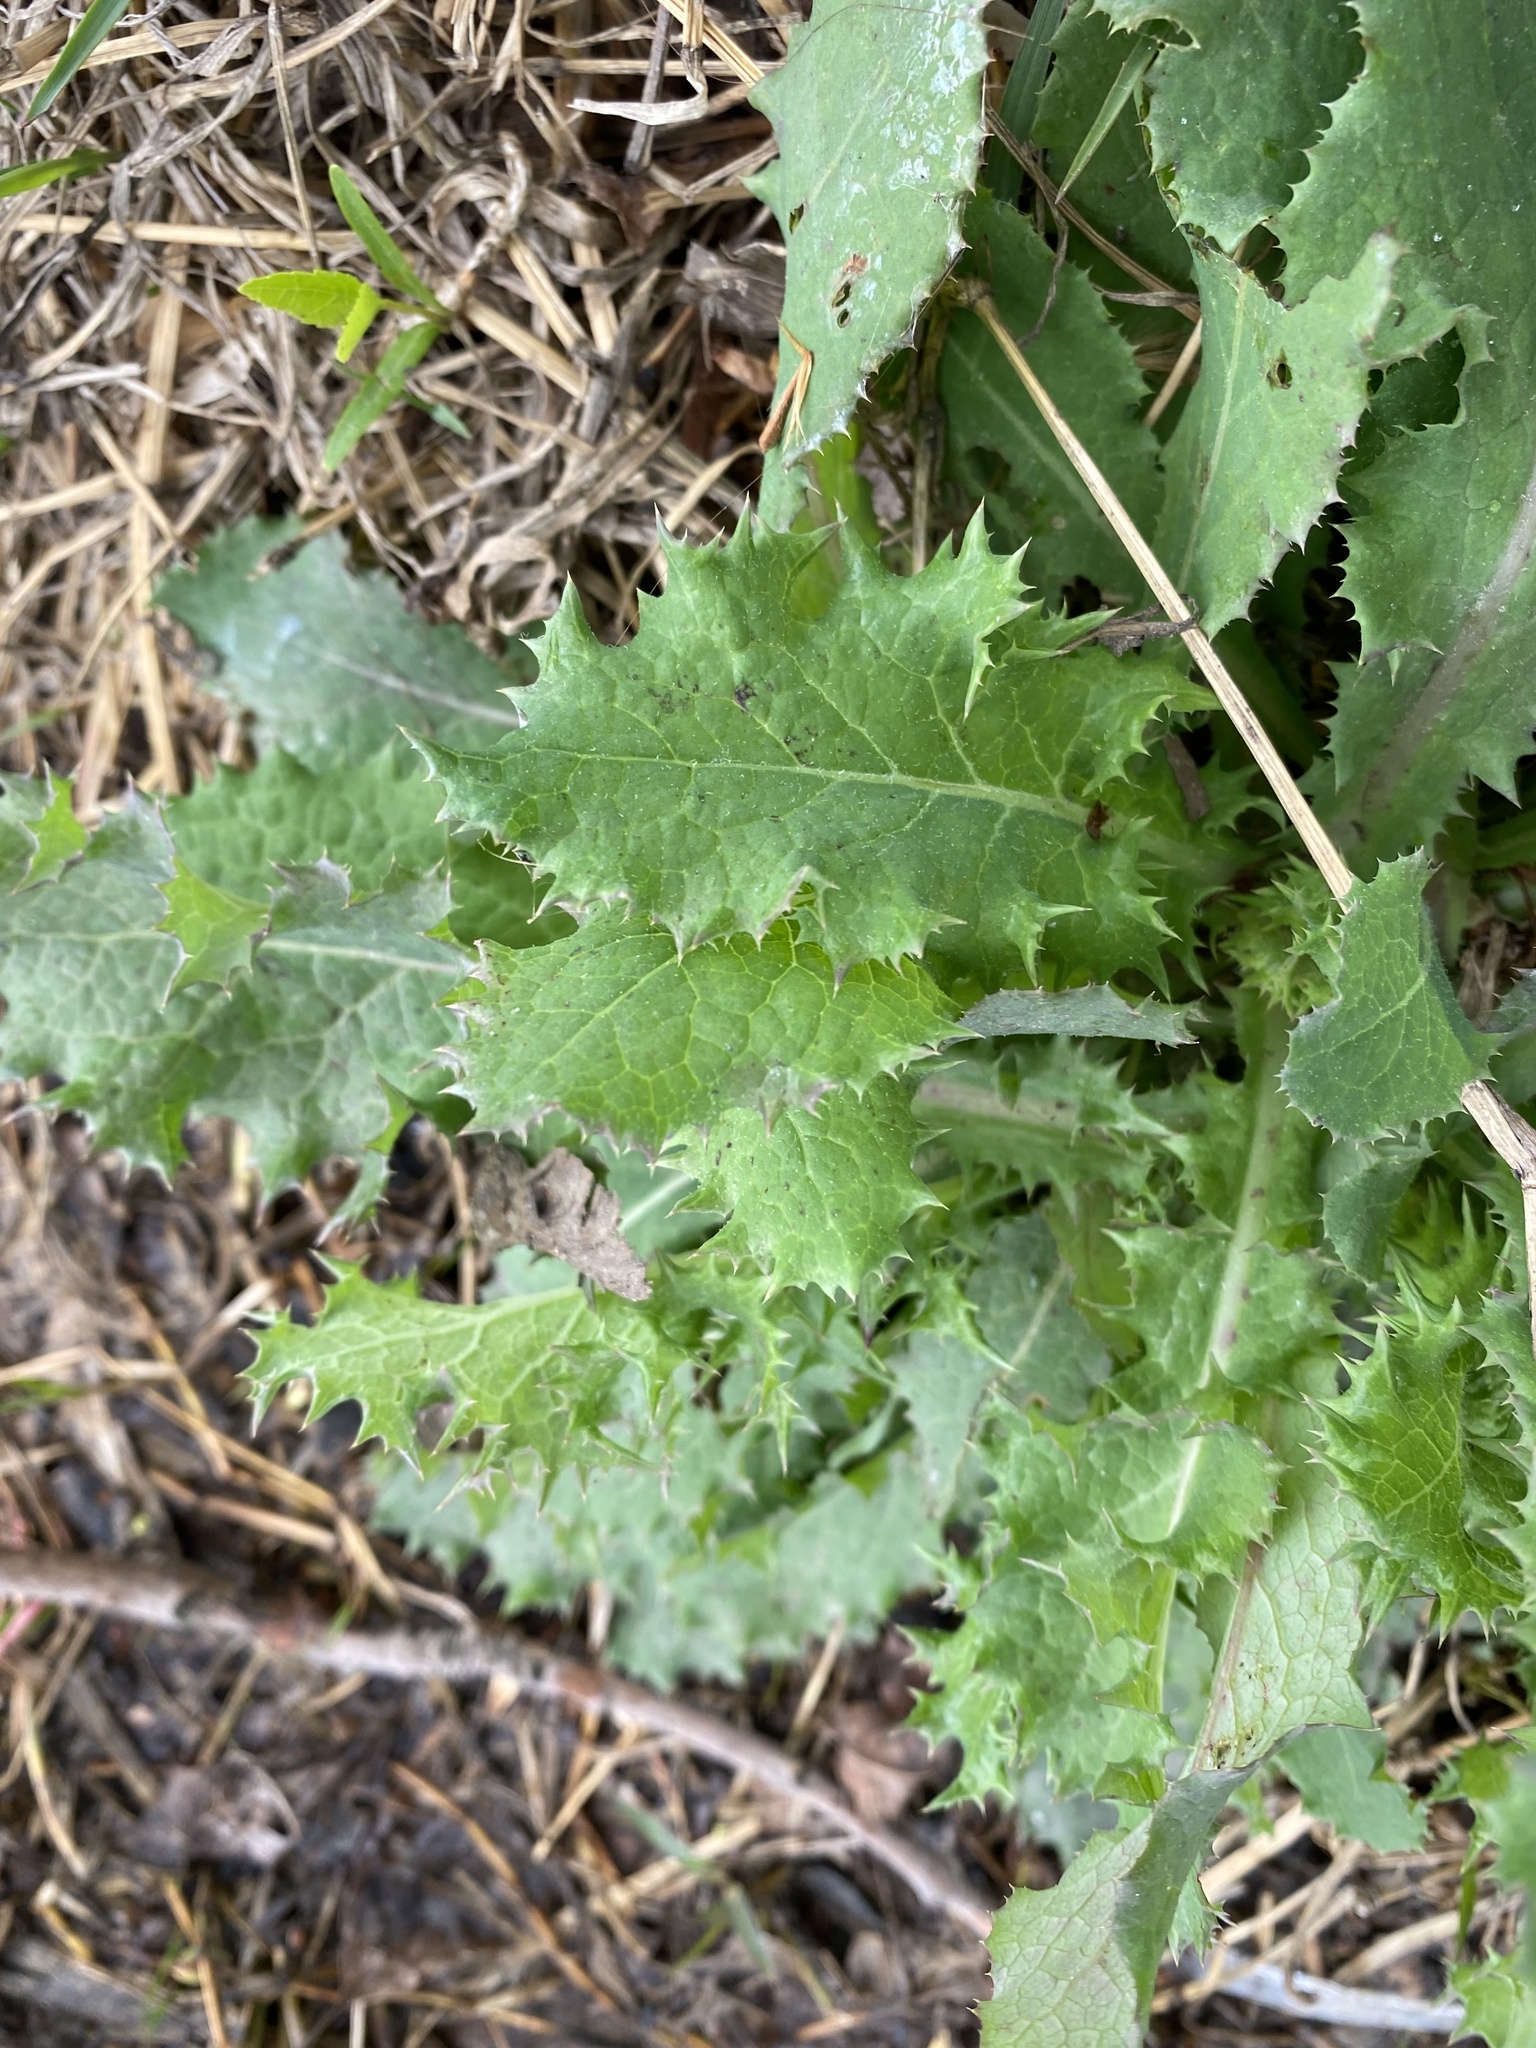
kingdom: Plantae
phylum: Tracheophyta
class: Magnoliopsida
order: Asterales
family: Asteraceae
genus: Sonchus
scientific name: Sonchus asper
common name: Prickly sow-thistle
